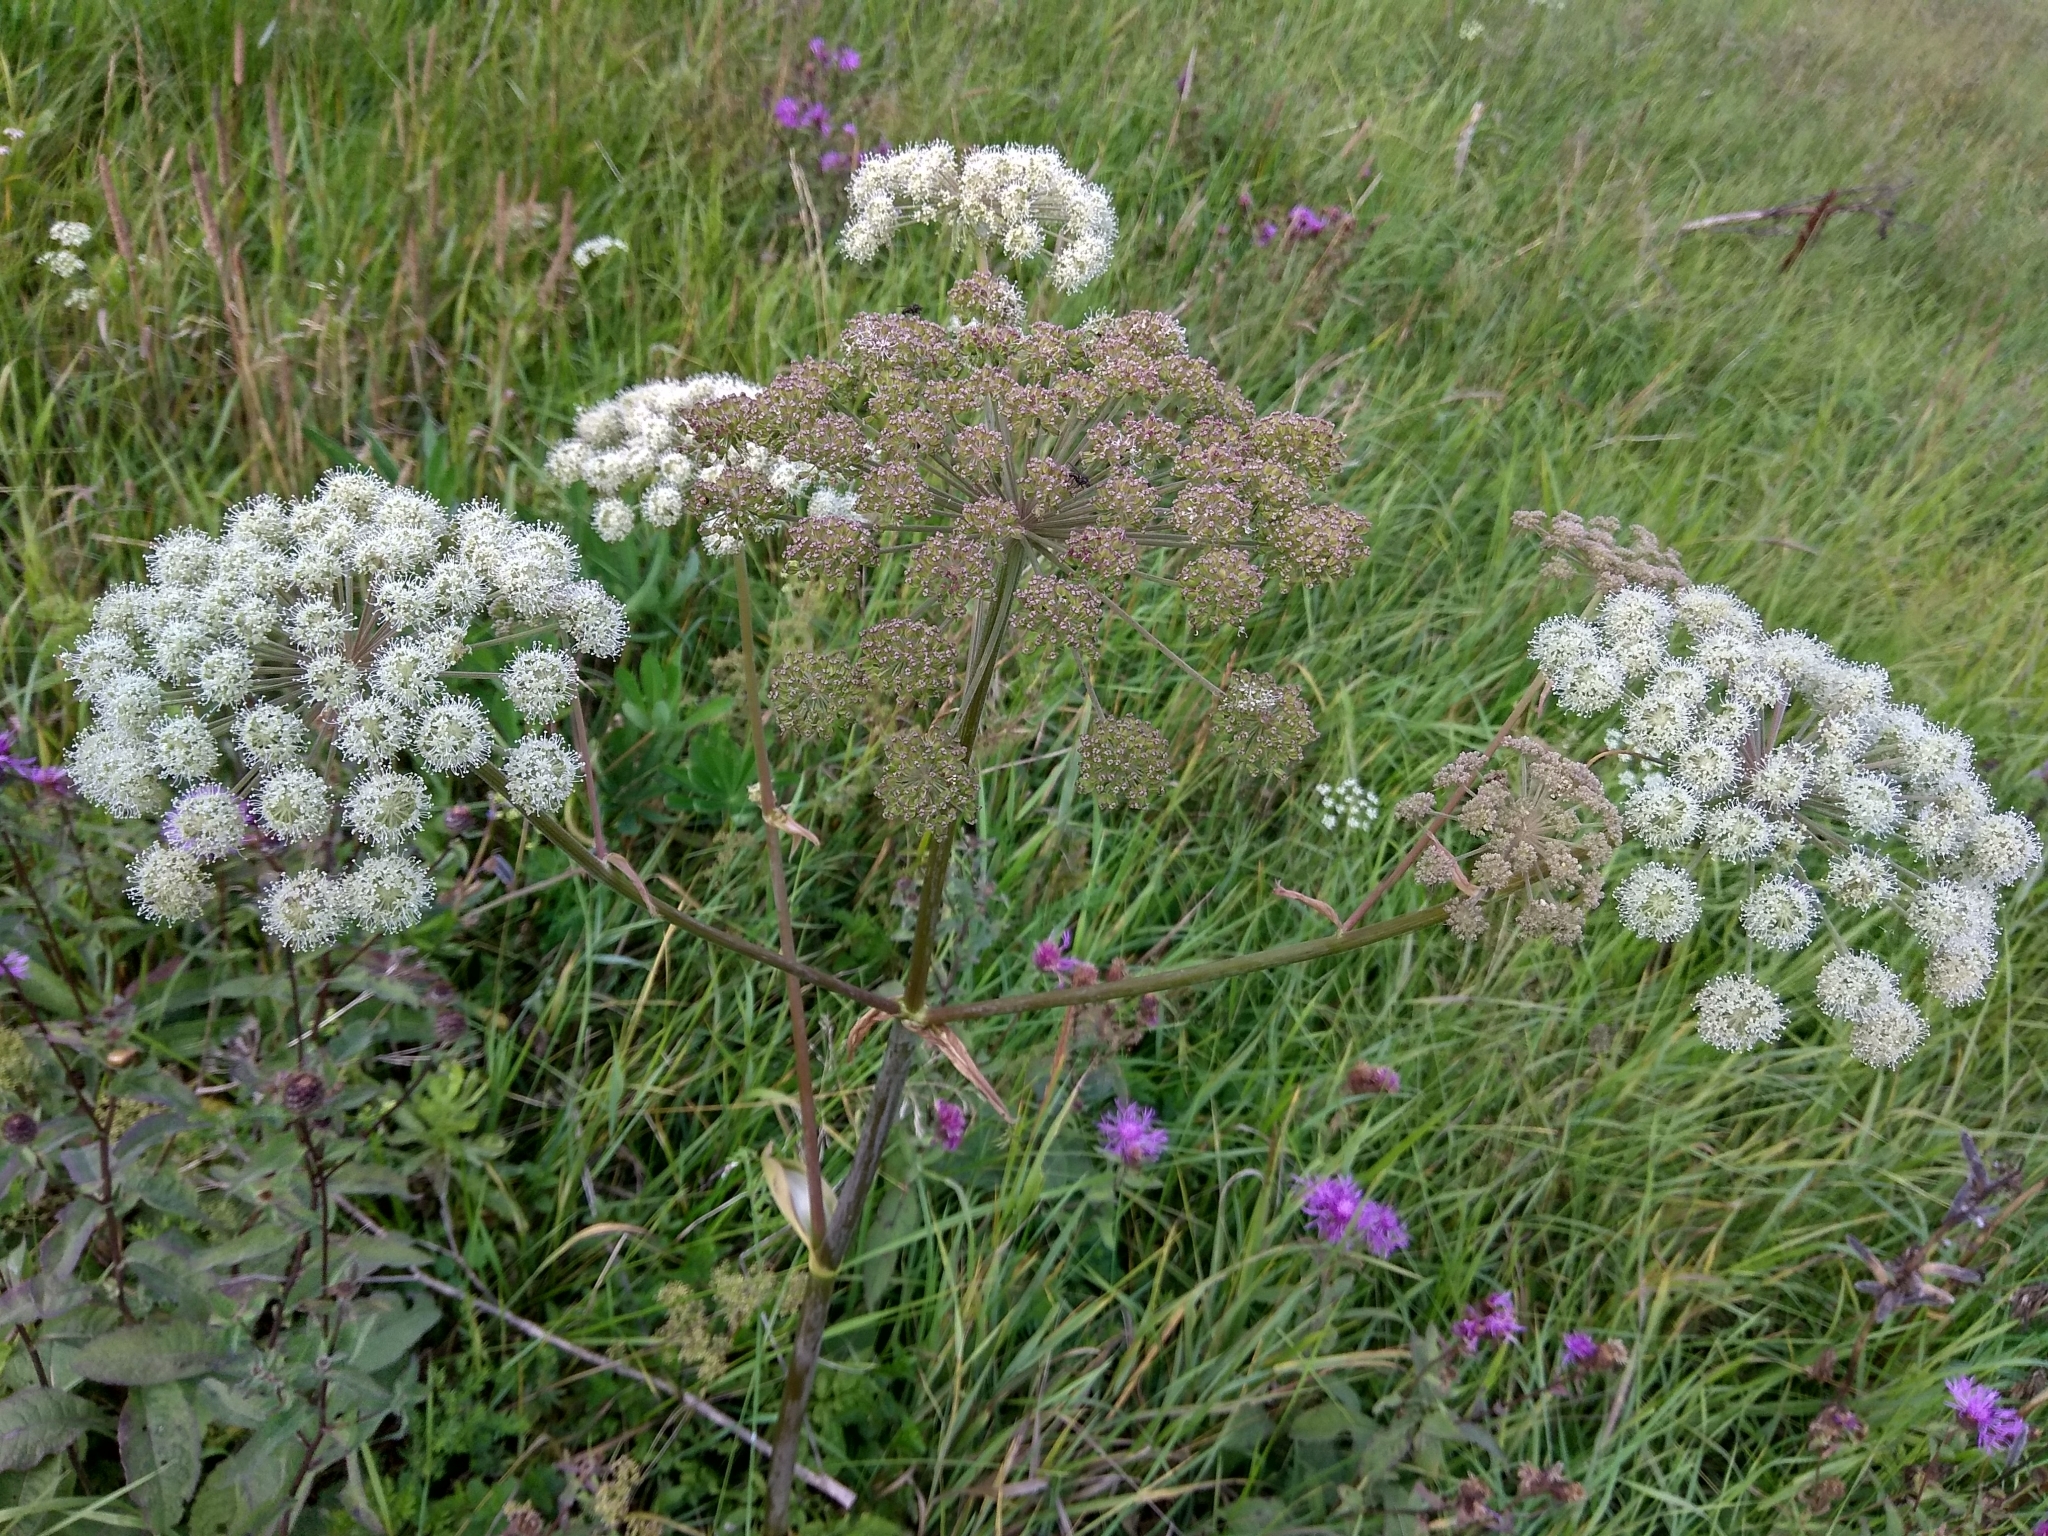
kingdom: Plantae
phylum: Tracheophyta
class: Magnoliopsida
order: Apiales
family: Apiaceae
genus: Angelica
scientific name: Angelica sylvestris
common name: Wild angelica
